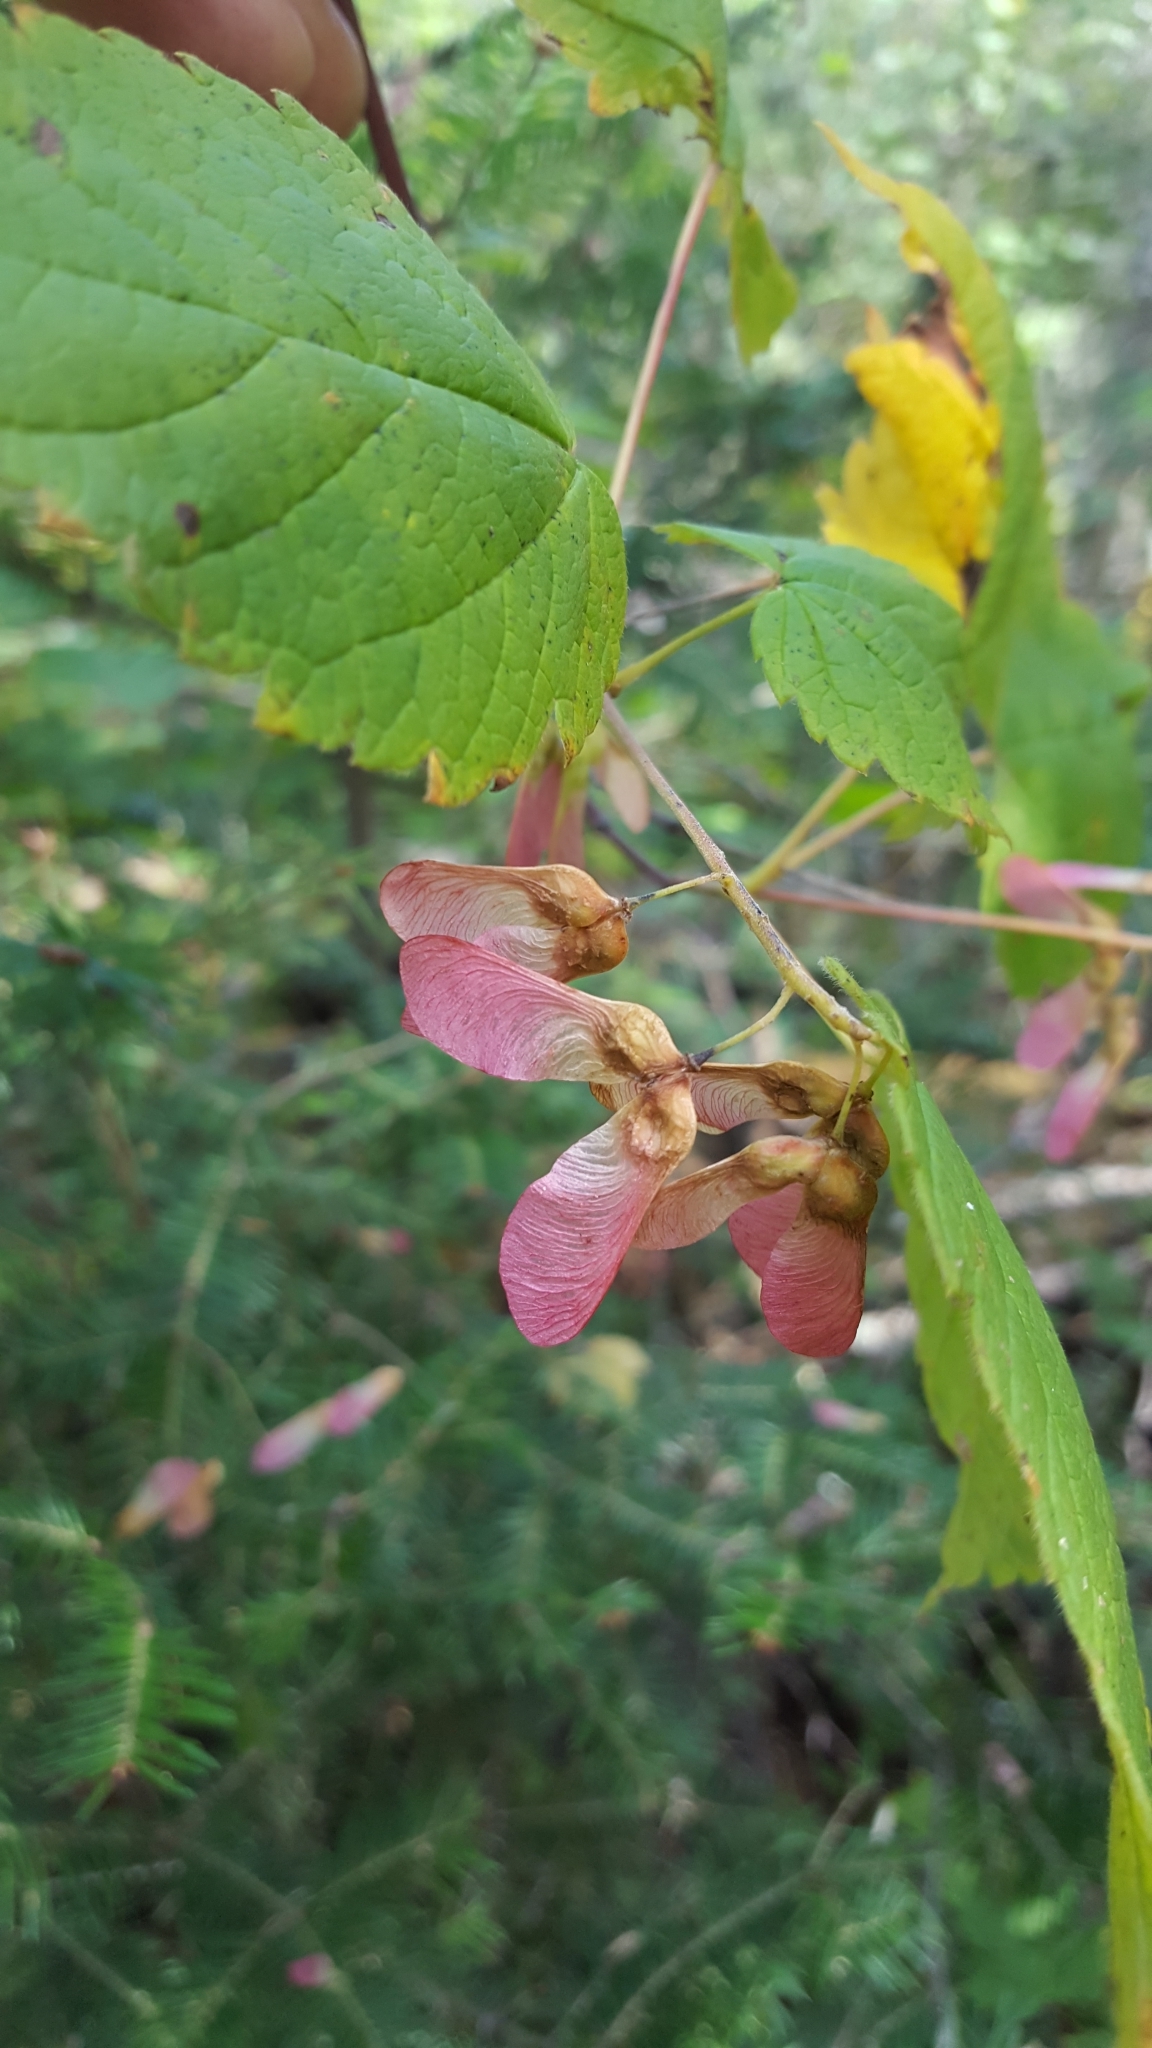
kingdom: Plantae
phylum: Tracheophyta
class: Magnoliopsida
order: Sapindales
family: Sapindaceae
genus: Acer
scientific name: Acer spicatum
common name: Mountain maple
